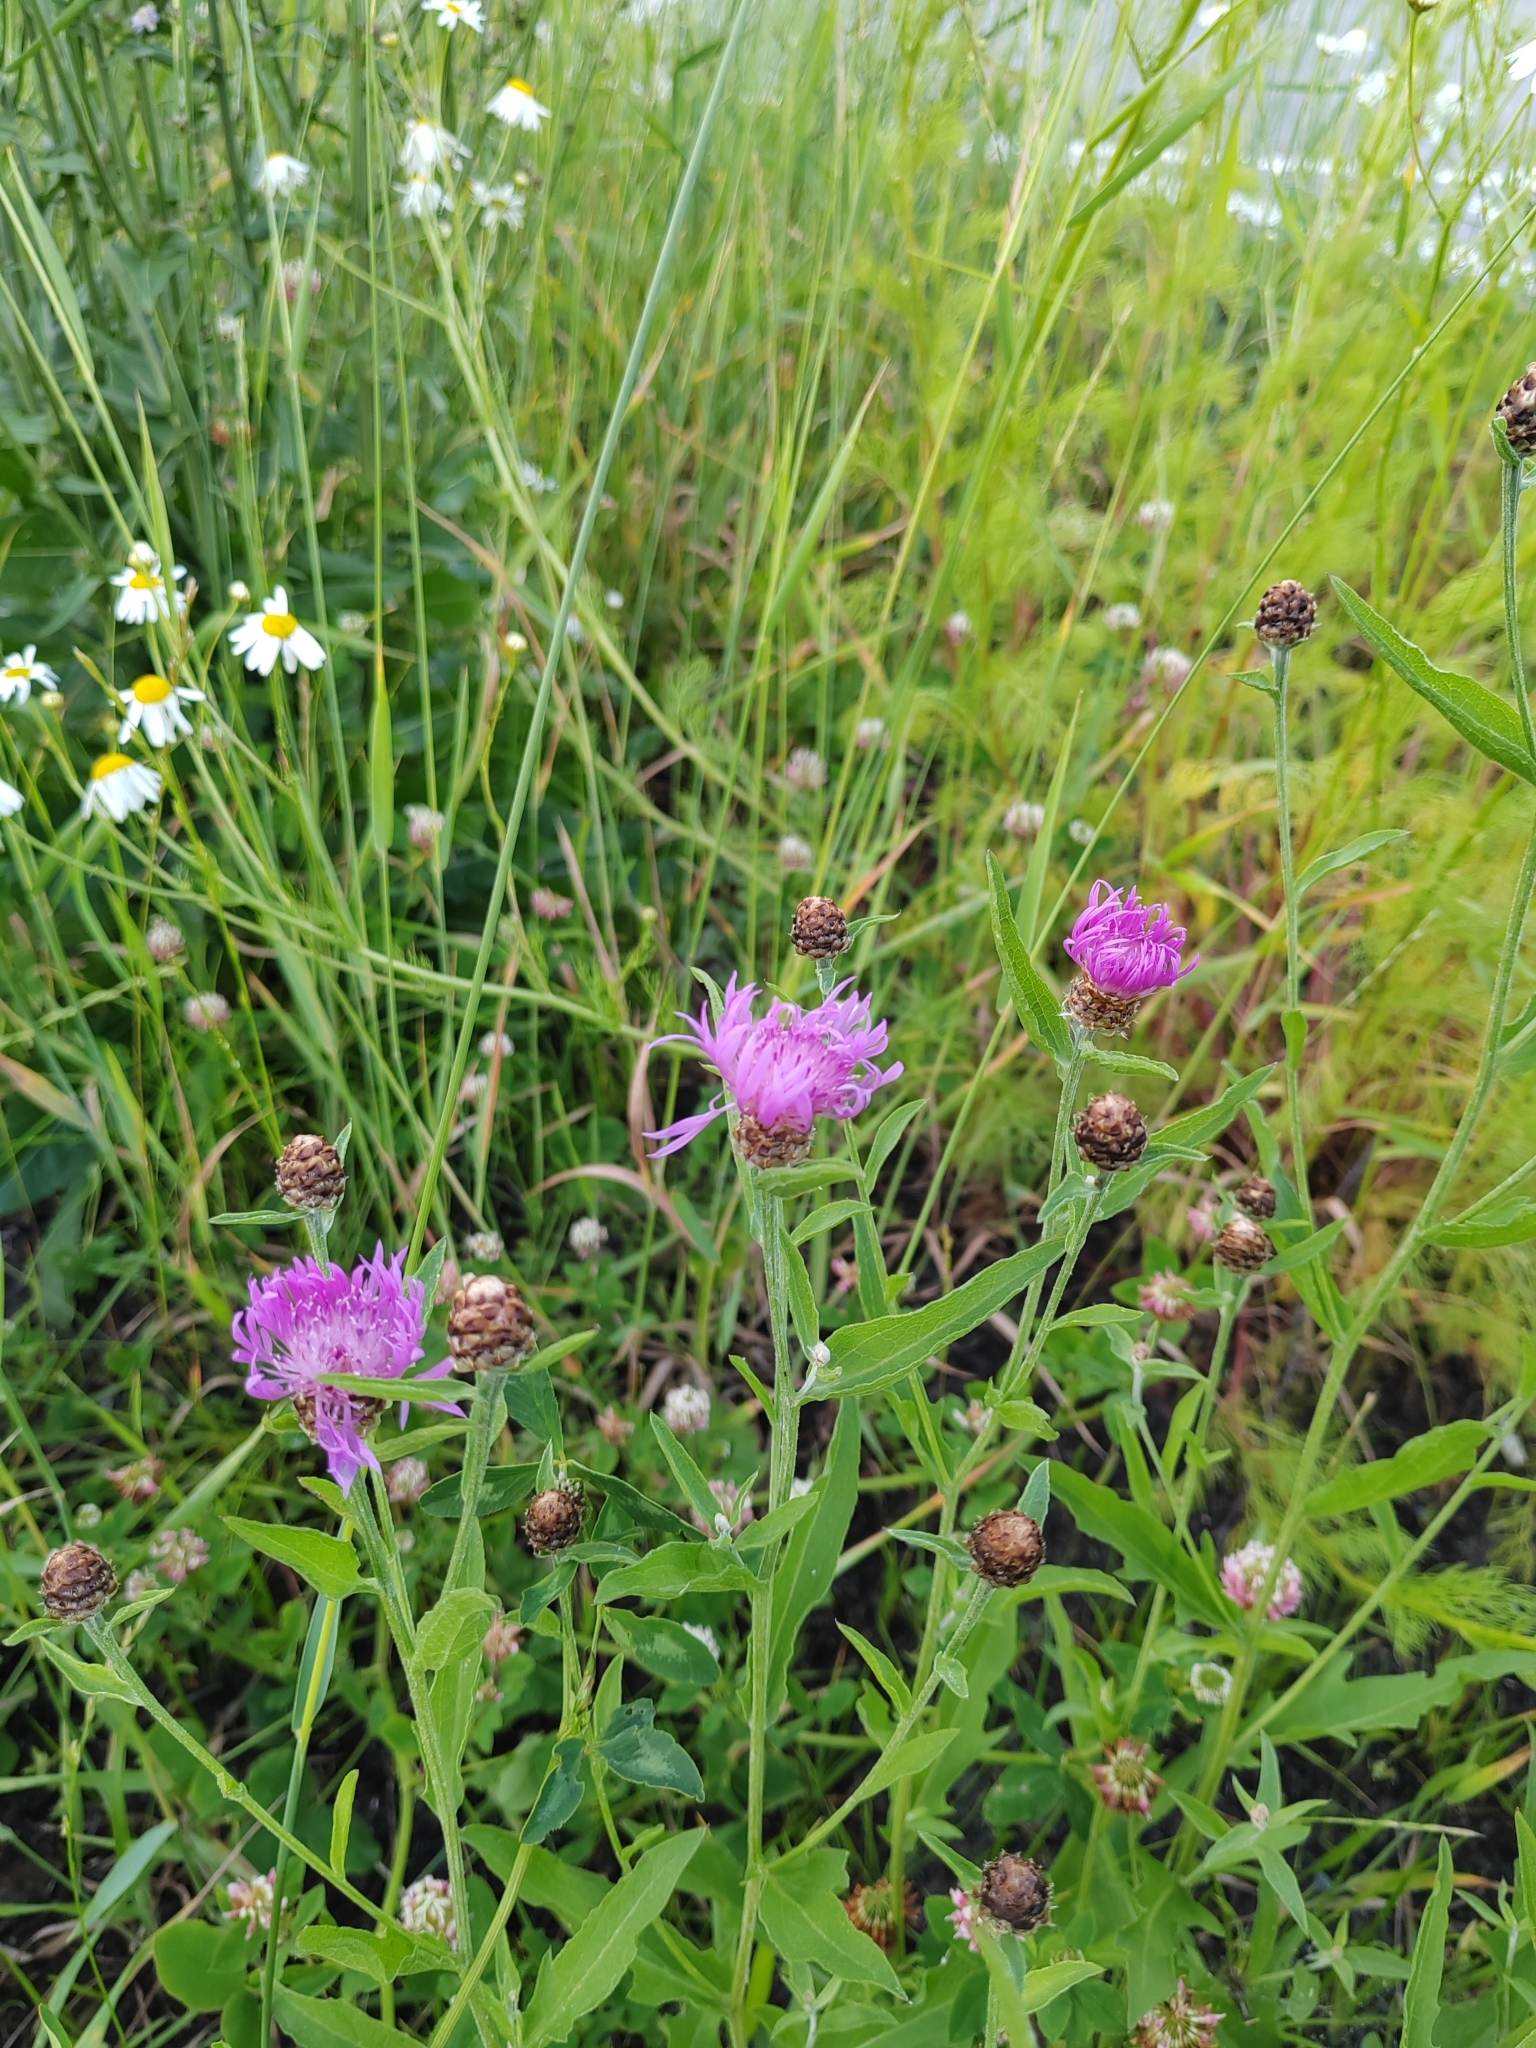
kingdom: Plantae
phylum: Tracheophyta
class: Magnoliopsida
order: Asterales
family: Asteraceae
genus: Centaurea
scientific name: Centaurea jacea
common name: Brown knapweed
